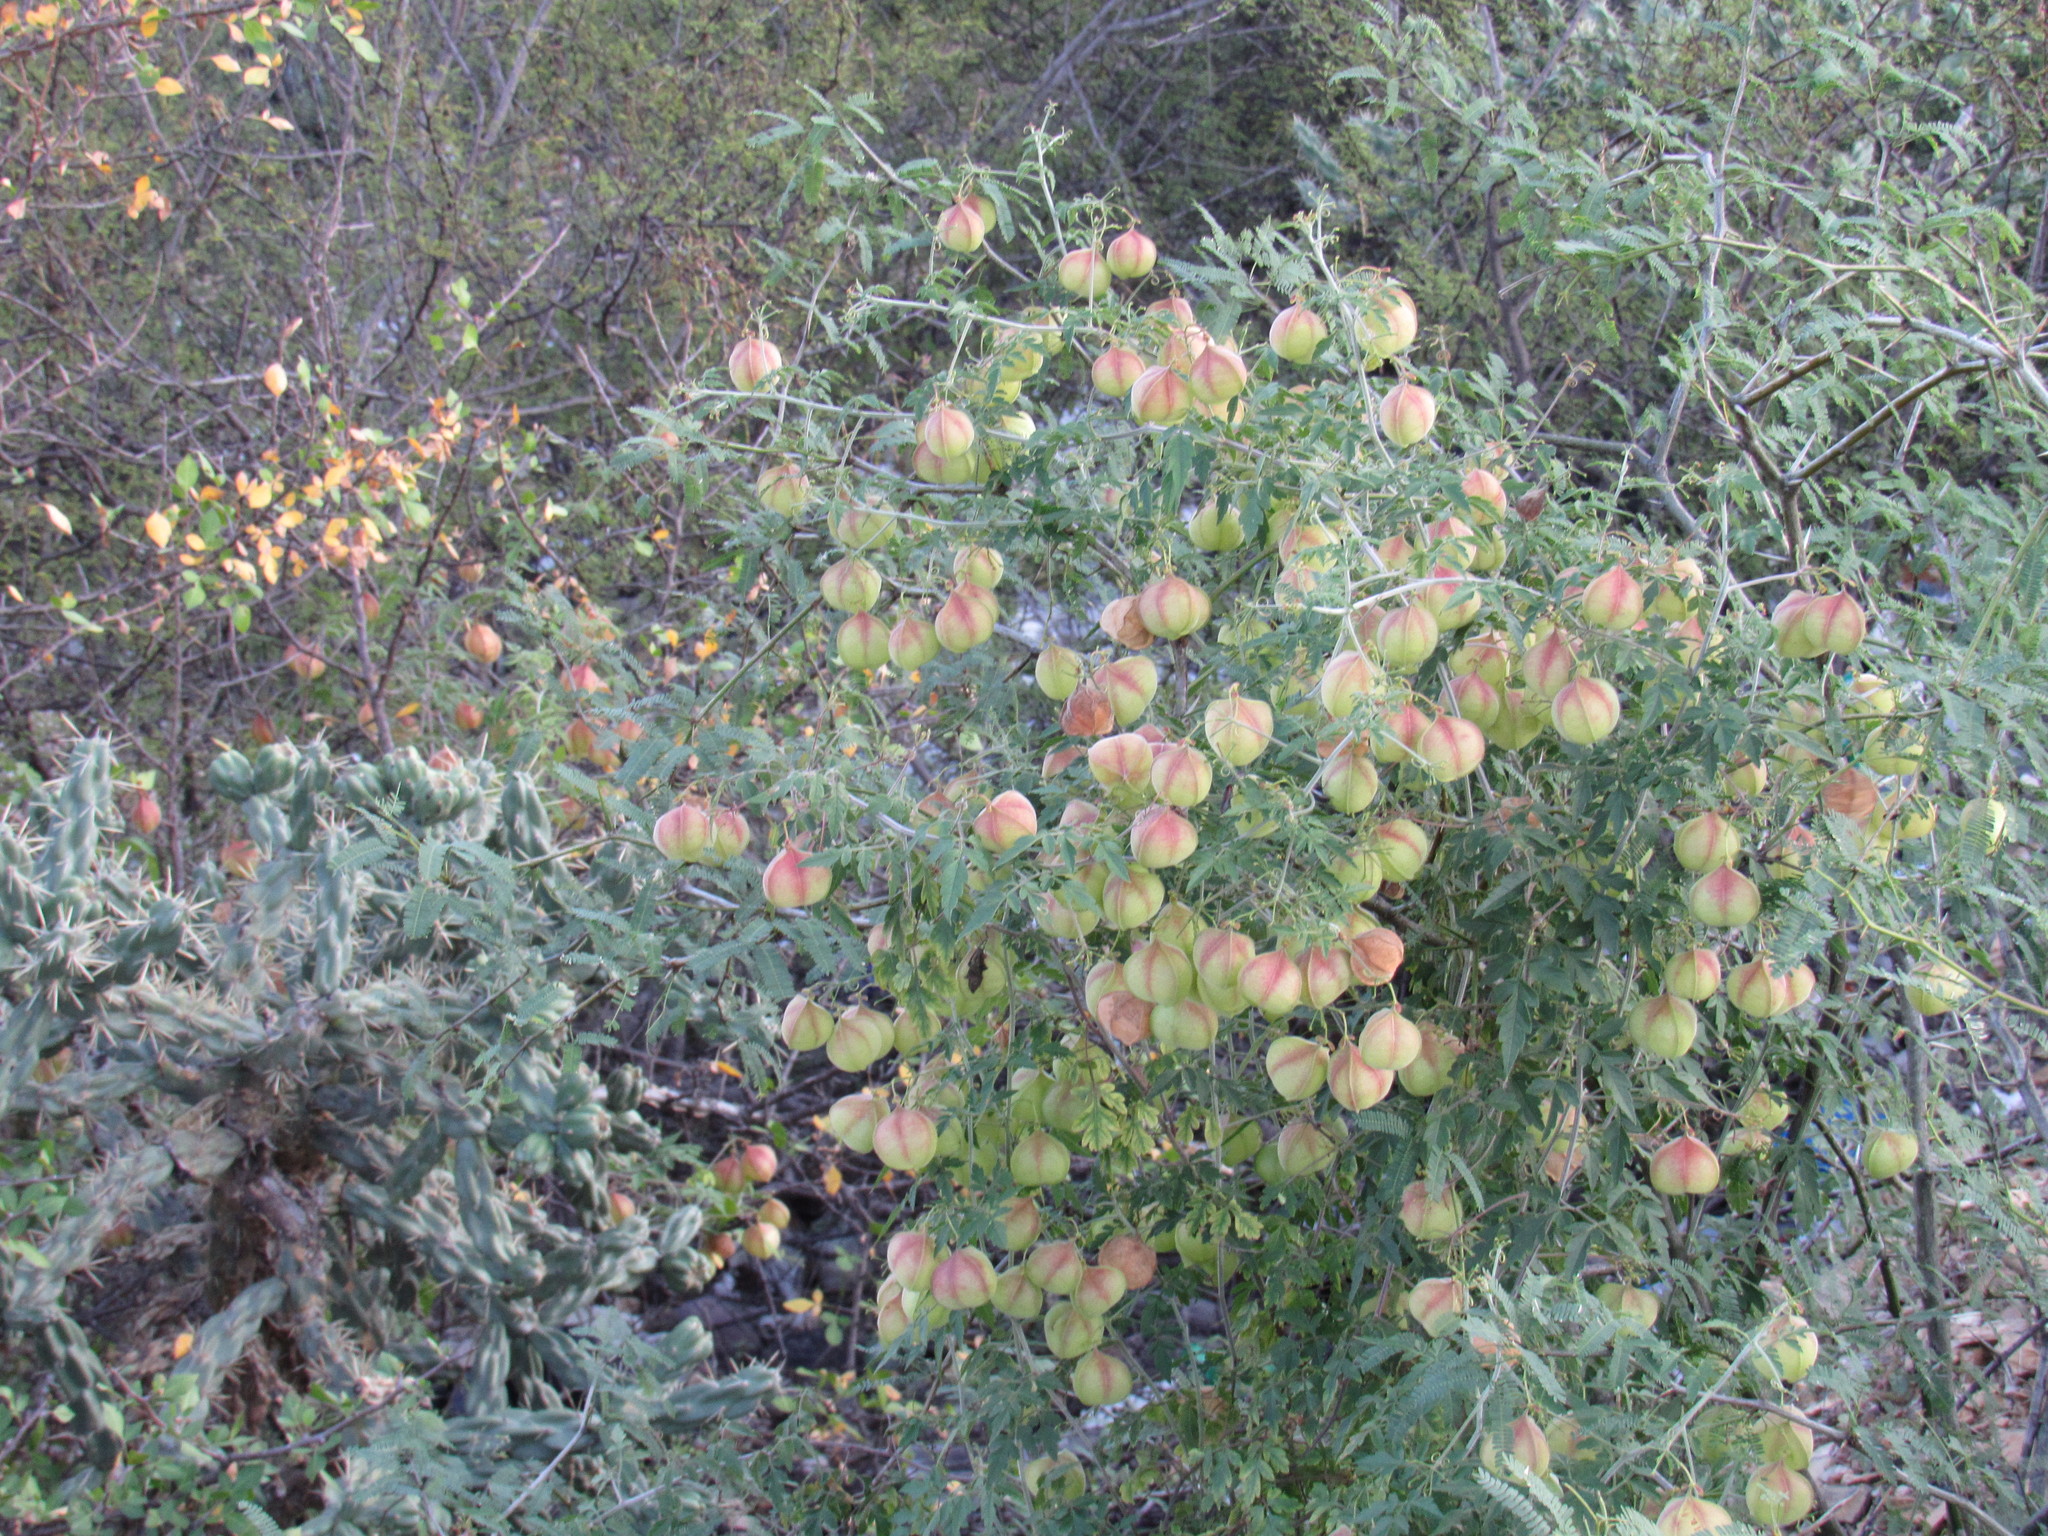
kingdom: Plantae
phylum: Tracheophyta
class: Magnoliopsida
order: Sapindales
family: Sapindaceae
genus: Cardiospermum
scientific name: Cardiospermum halicacabum
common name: Balloon vine
